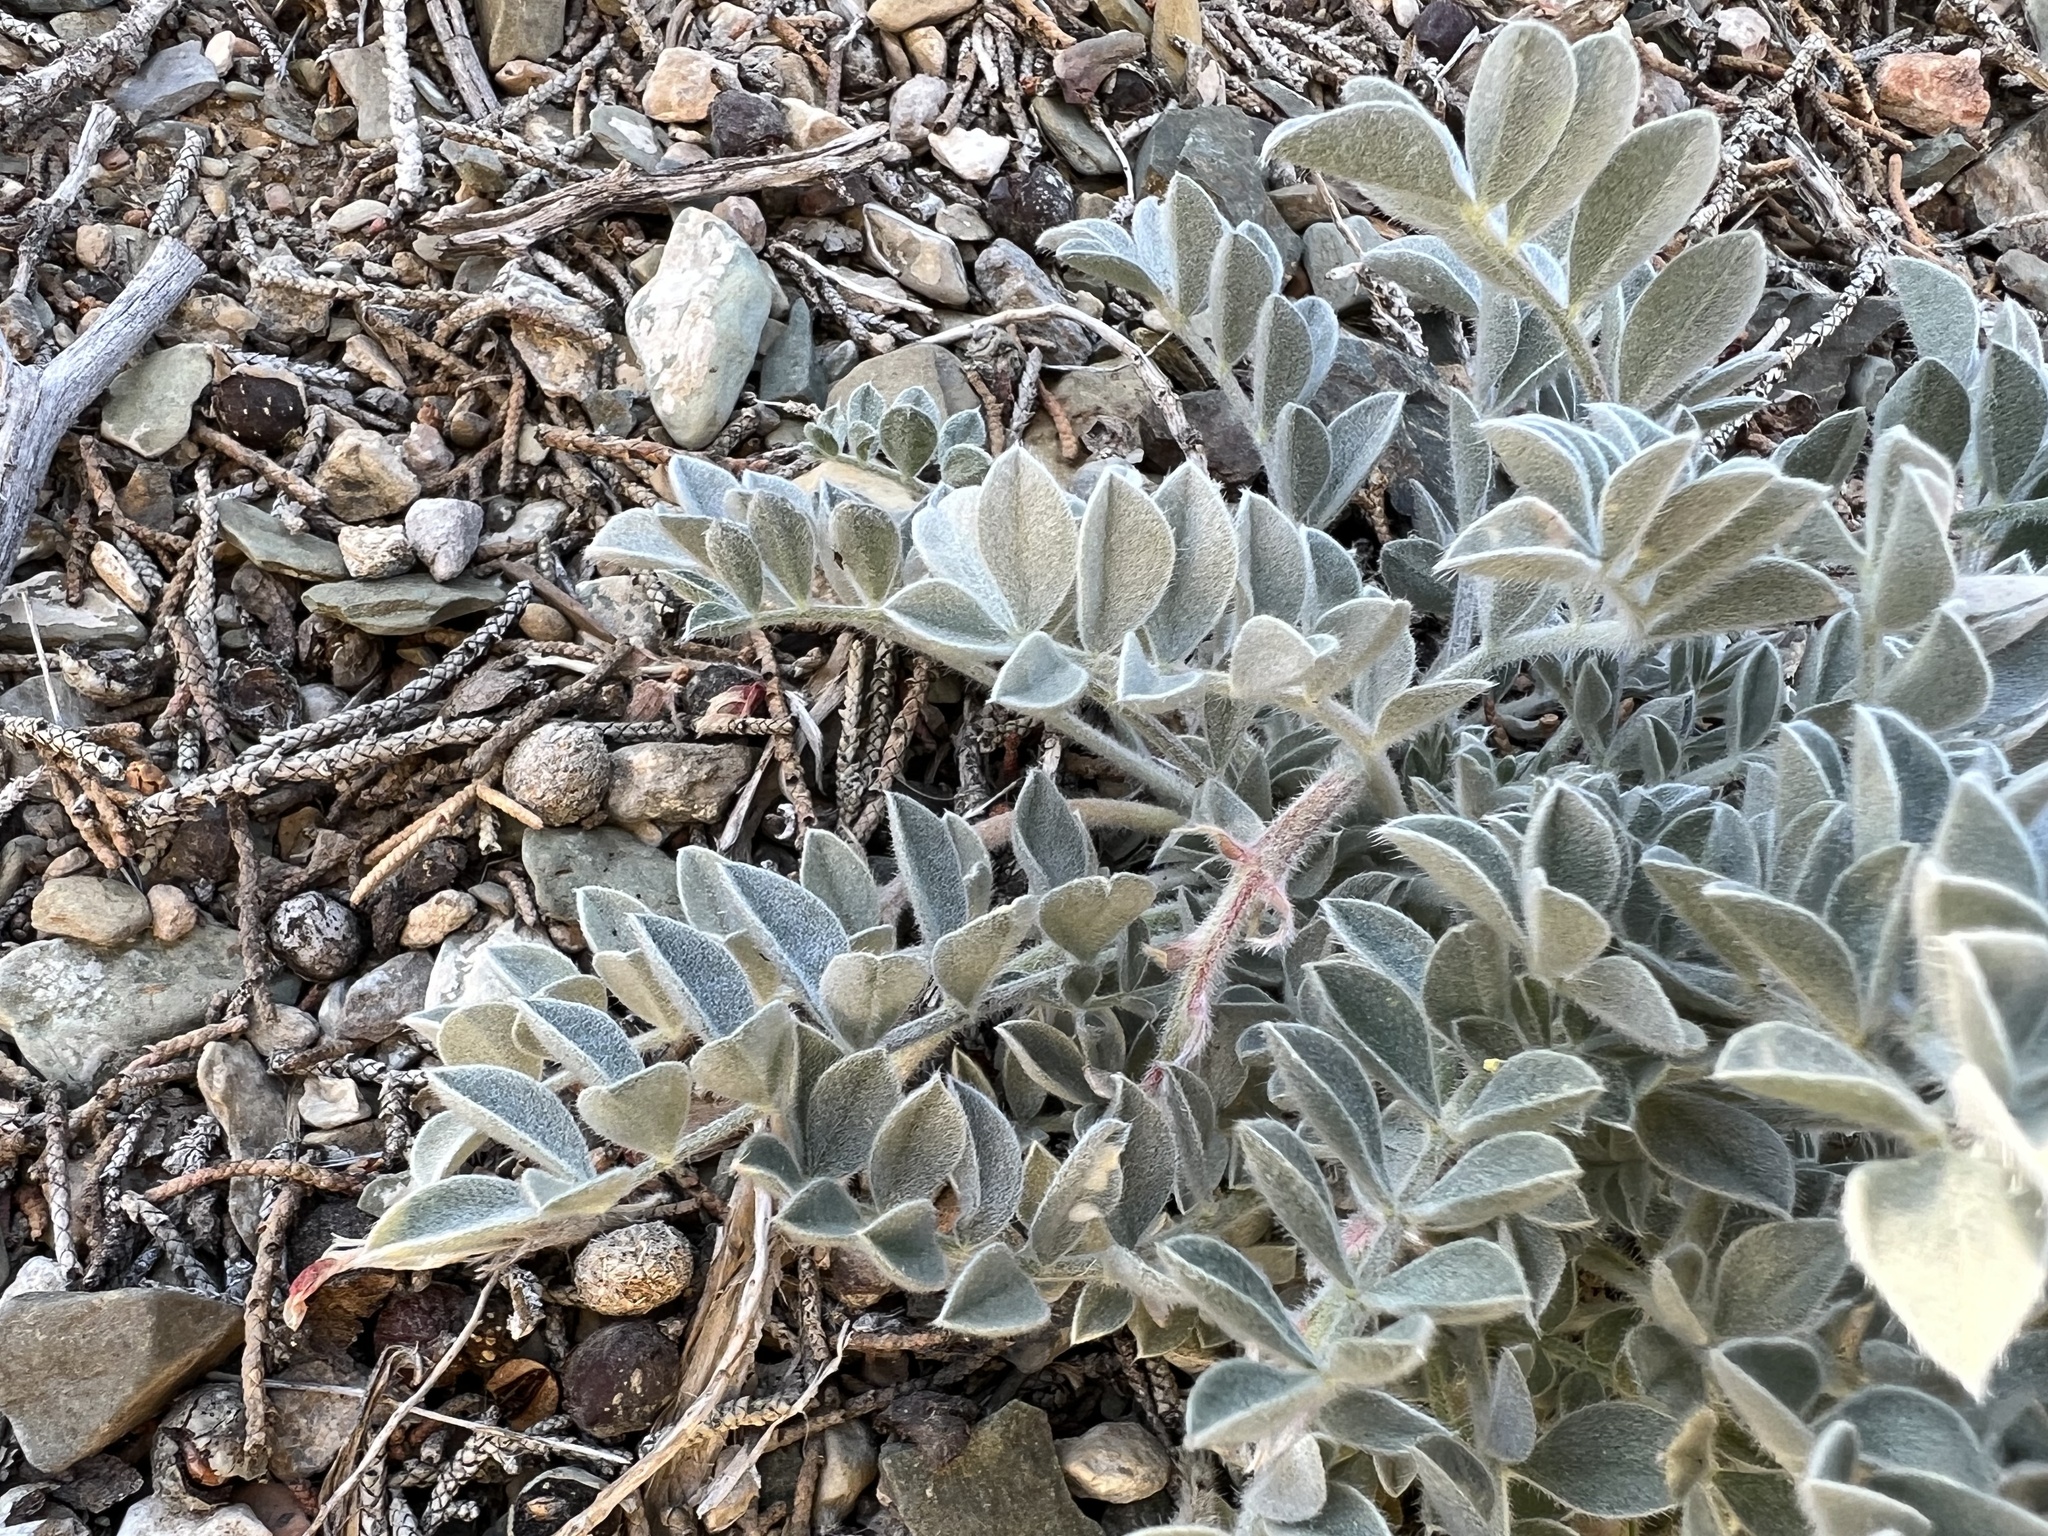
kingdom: Plantae
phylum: Tracheophyta
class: Magnoliopsida
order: Fabales
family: Fabaceae
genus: Astragalus
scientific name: Astragalus coccineus
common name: Scarlet milk-vetch
